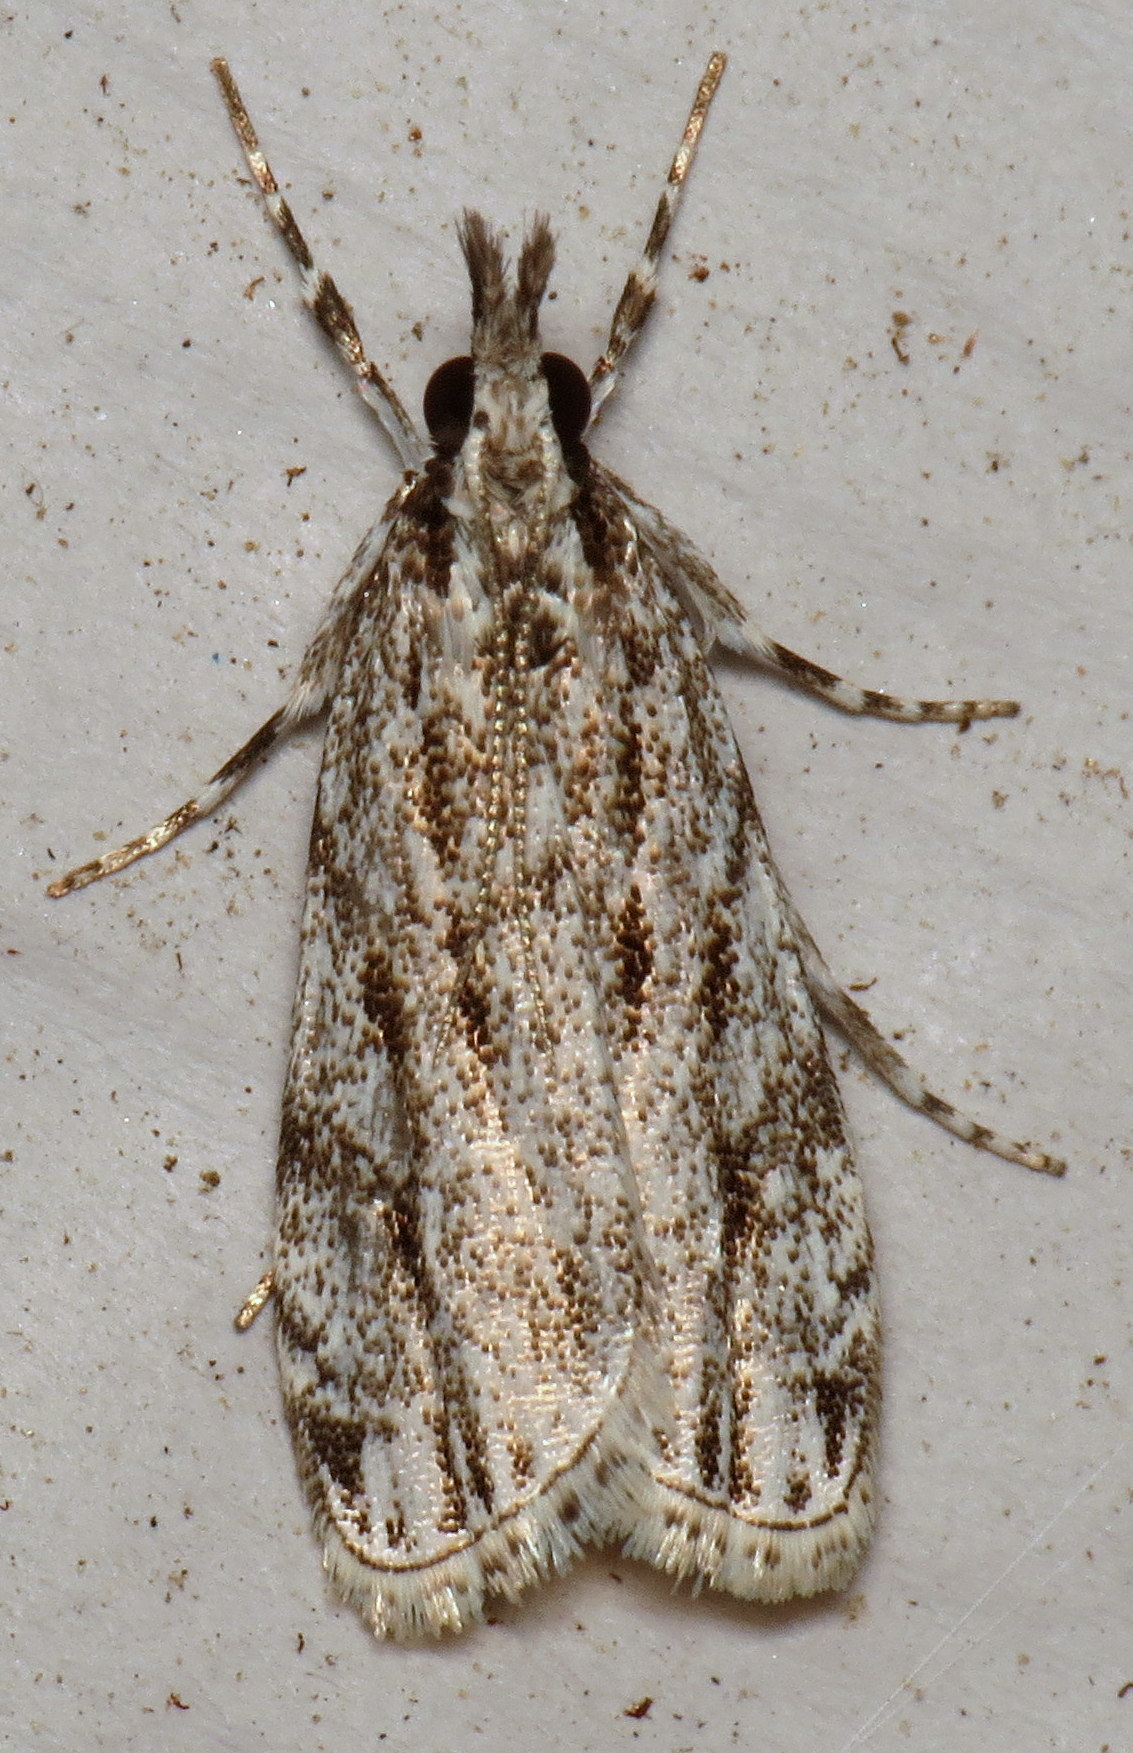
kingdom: Animalia
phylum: Arthropoda
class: Insecta
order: Lepidoptera
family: Crambidae
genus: Eudonia
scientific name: Eudonia strigalis
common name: Striped eudonia moth
